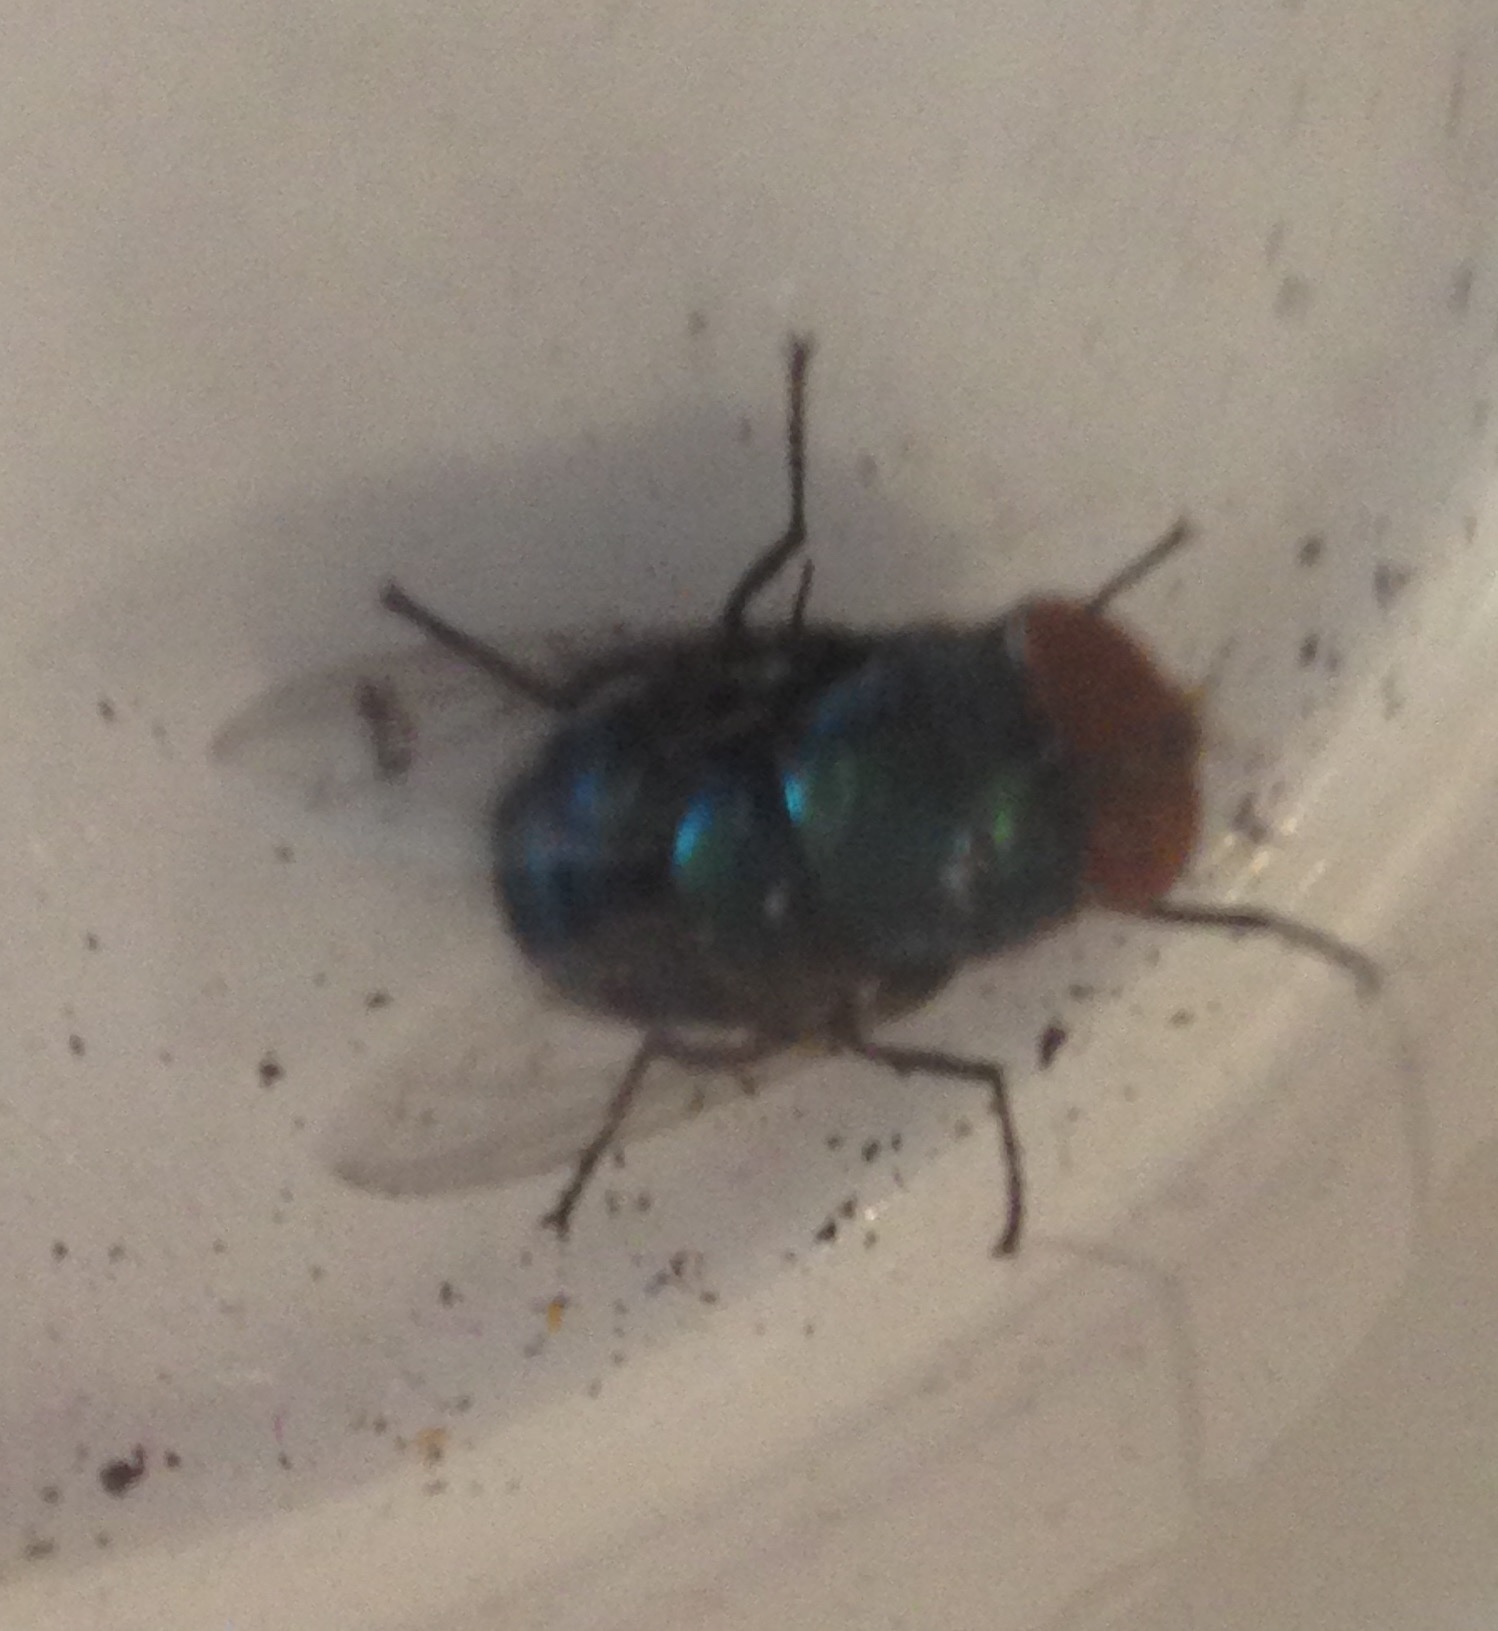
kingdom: Animalia
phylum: Arthropoda
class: Insecta
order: Diptera
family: Calliphoridae
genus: Chrysomya
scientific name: Chrysomya megacephala
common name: Blow fly
